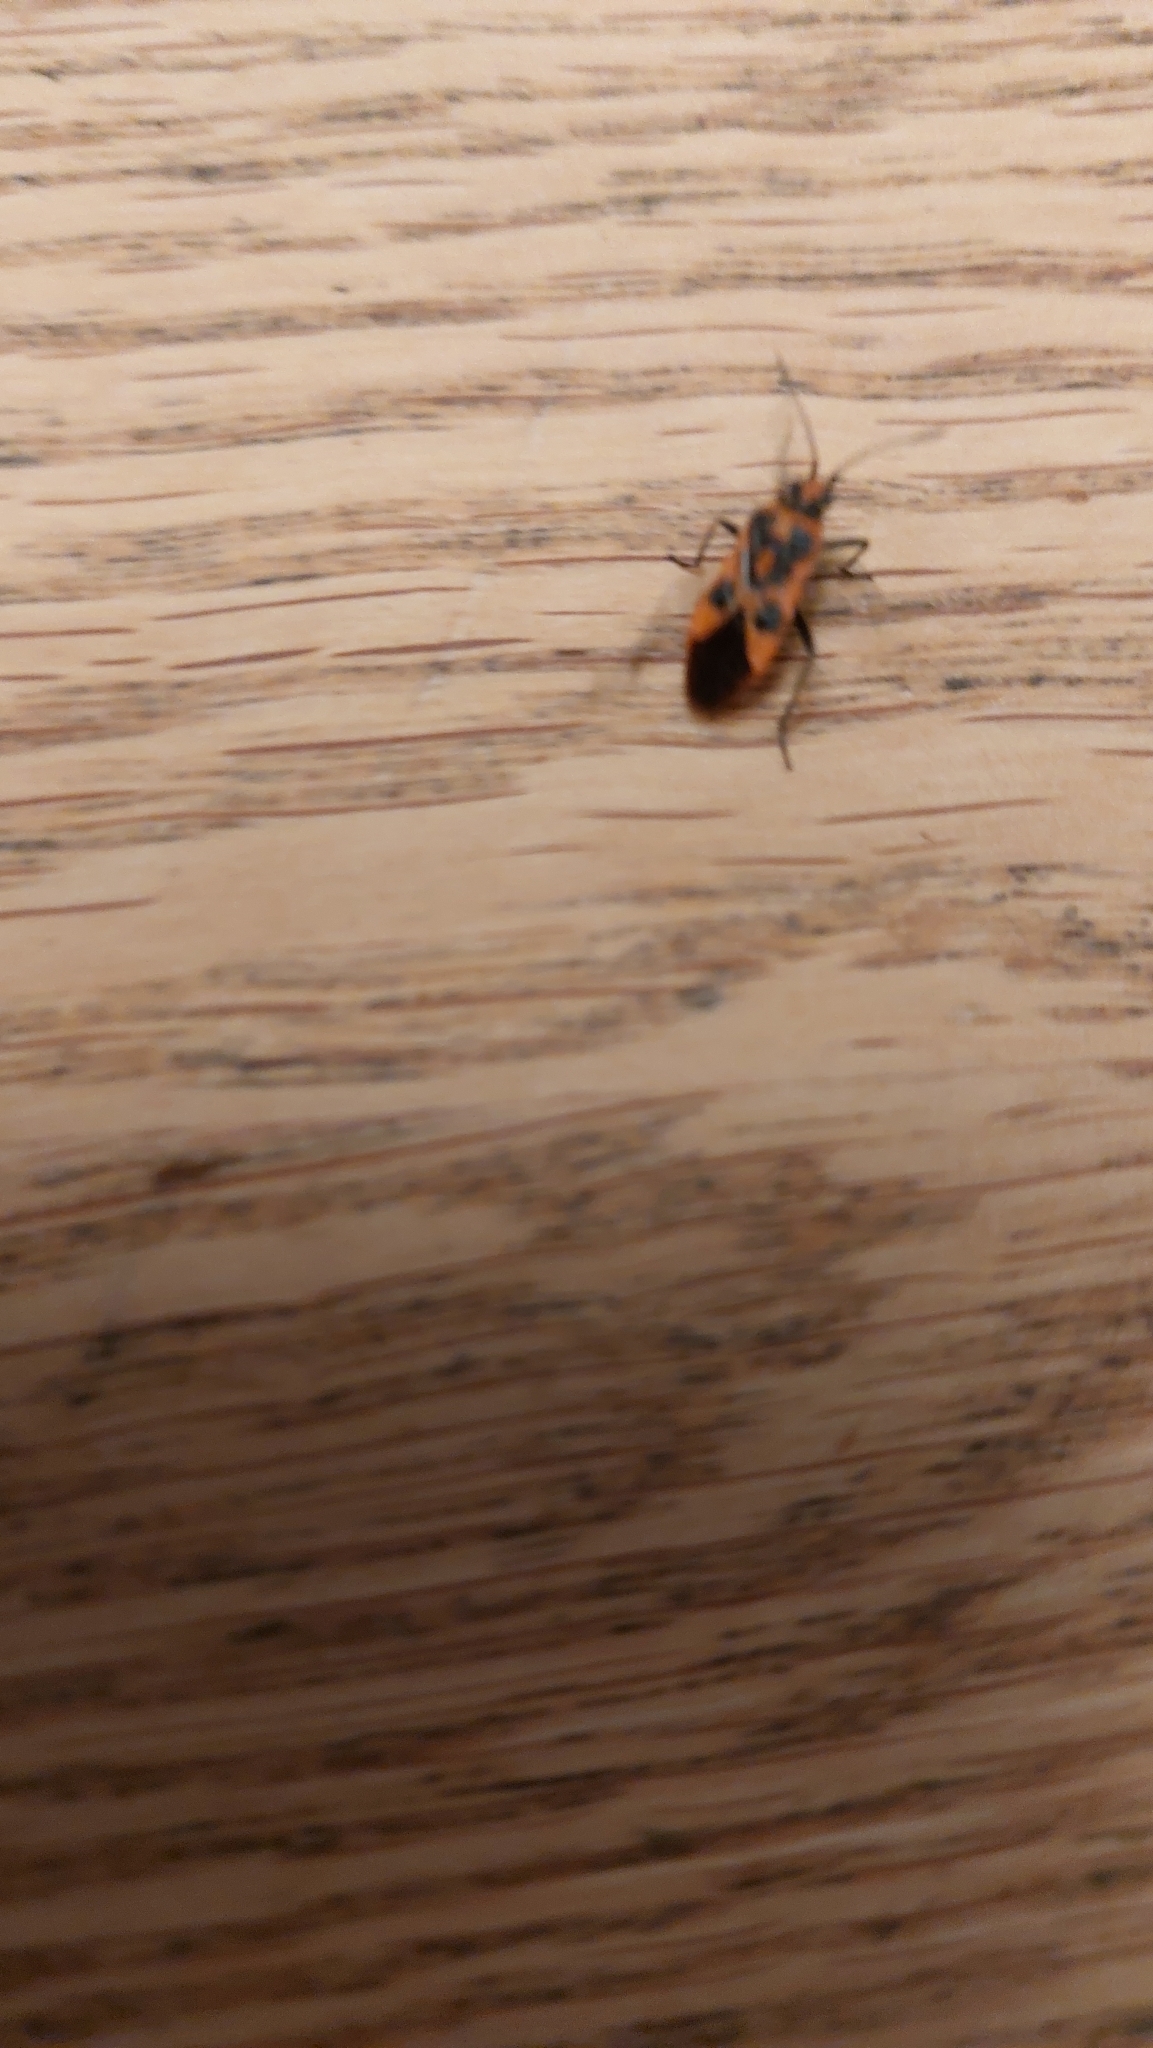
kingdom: Animalia
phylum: Arthropoda
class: Insecta
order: Hemiptera
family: Rhopalidae
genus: Corizus
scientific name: Corizus hyoscyami
